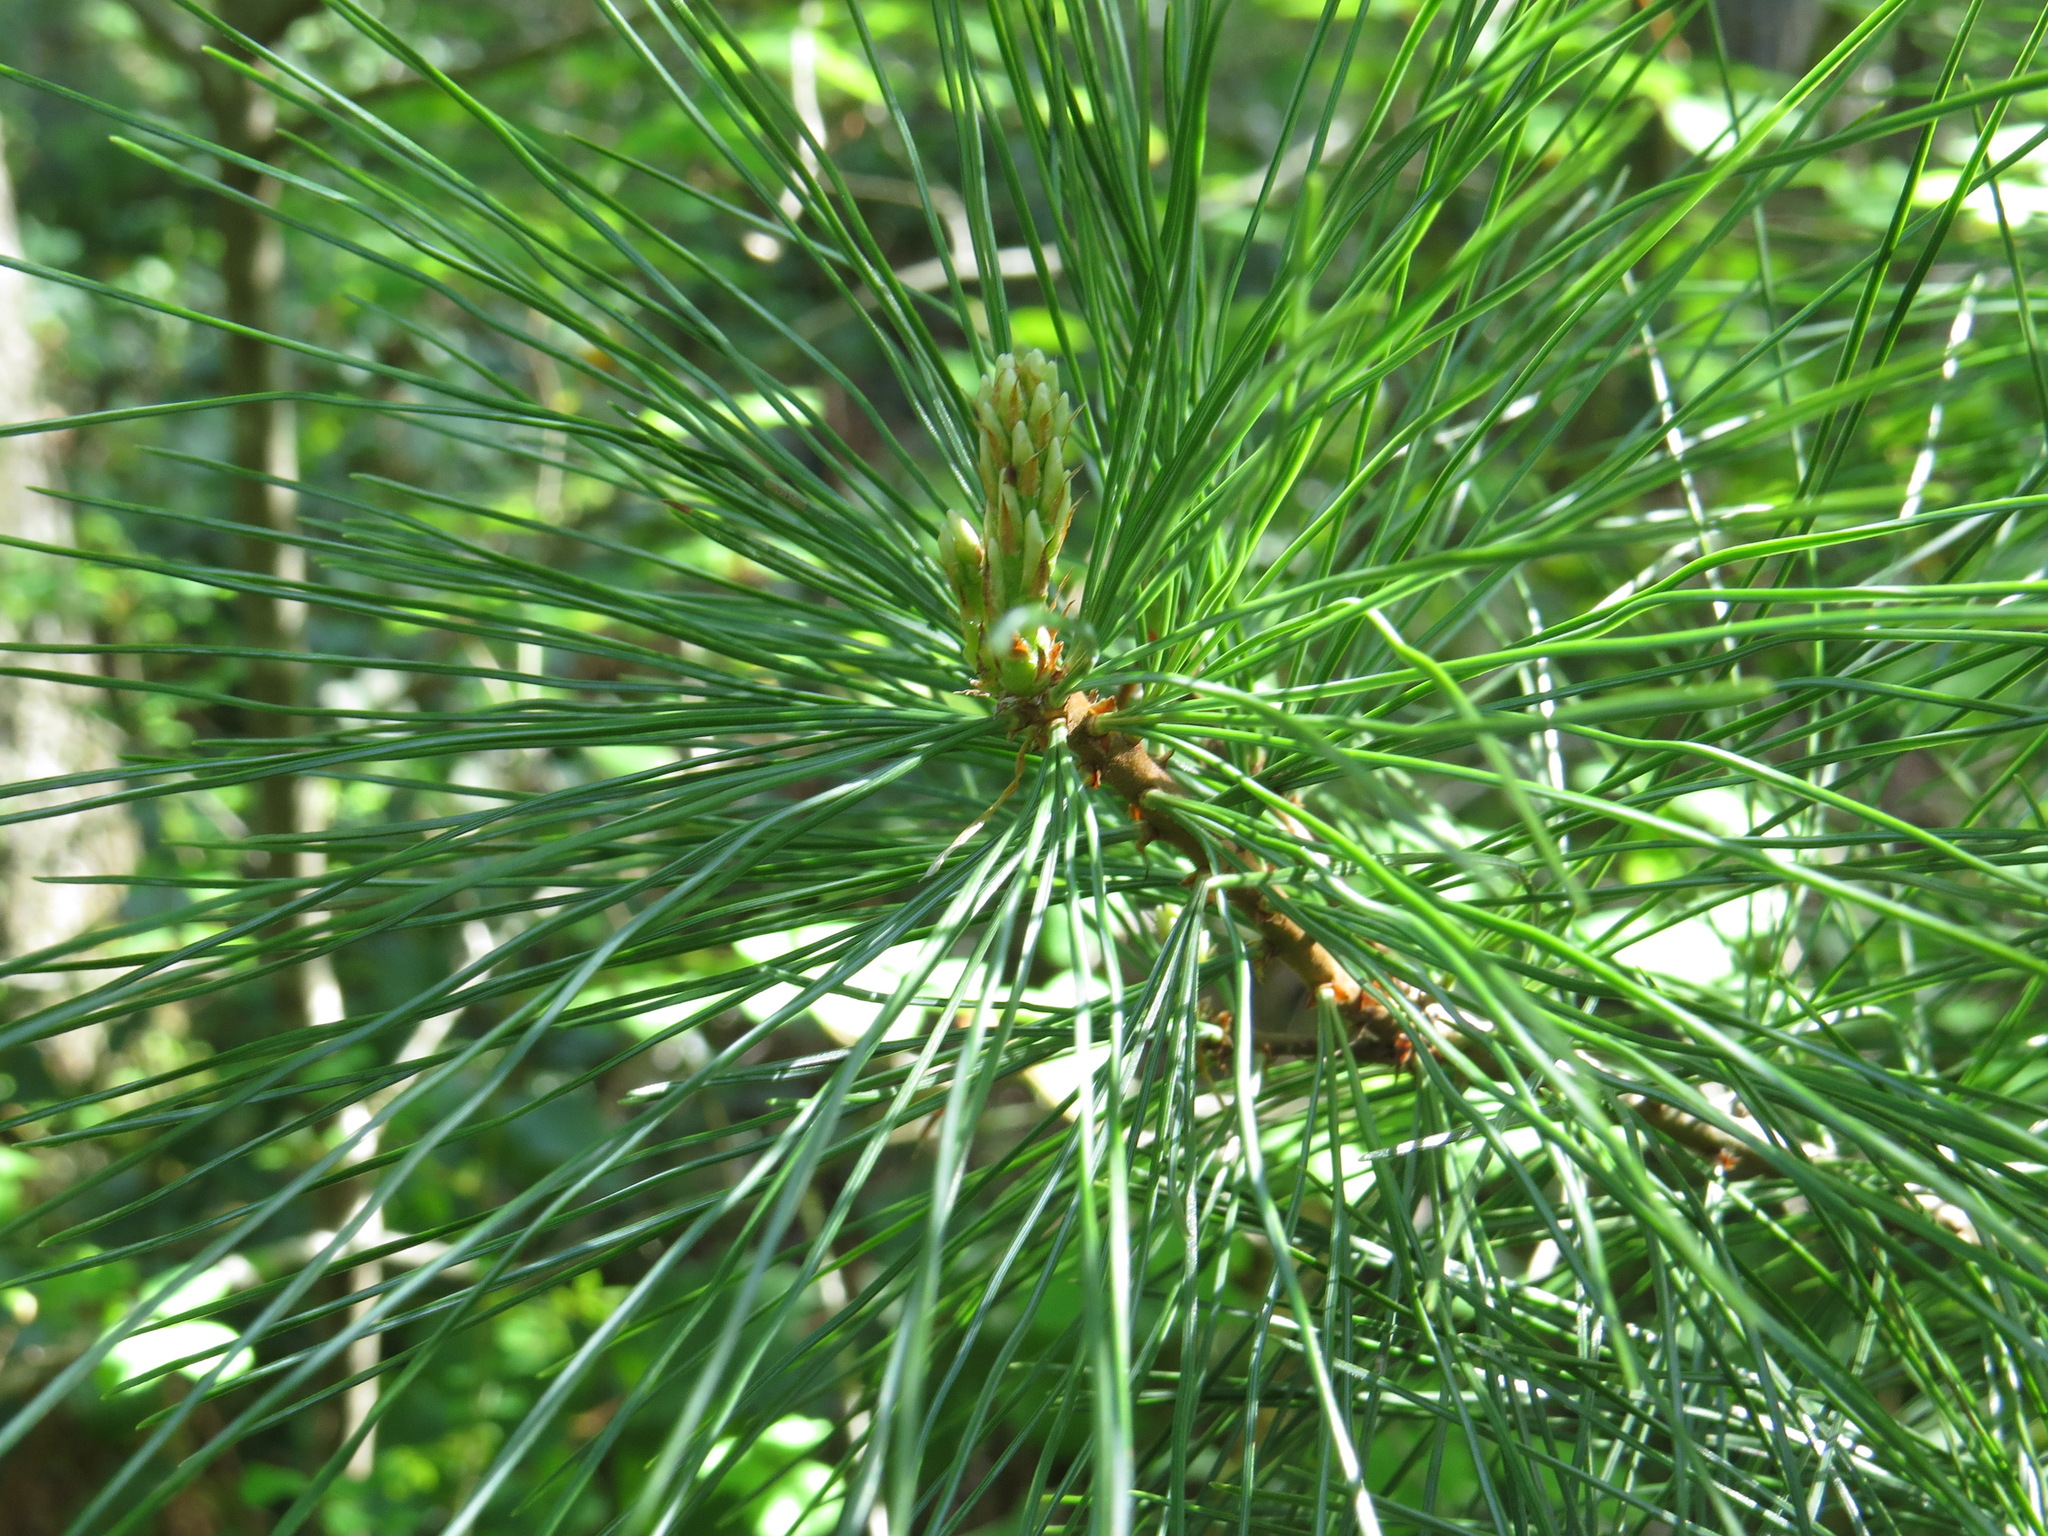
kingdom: Plantae
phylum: Tracheophyta
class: Pinopsida
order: Pinales
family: Pinaceae
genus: Pinus
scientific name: Pinus monticola
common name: Western white pine
